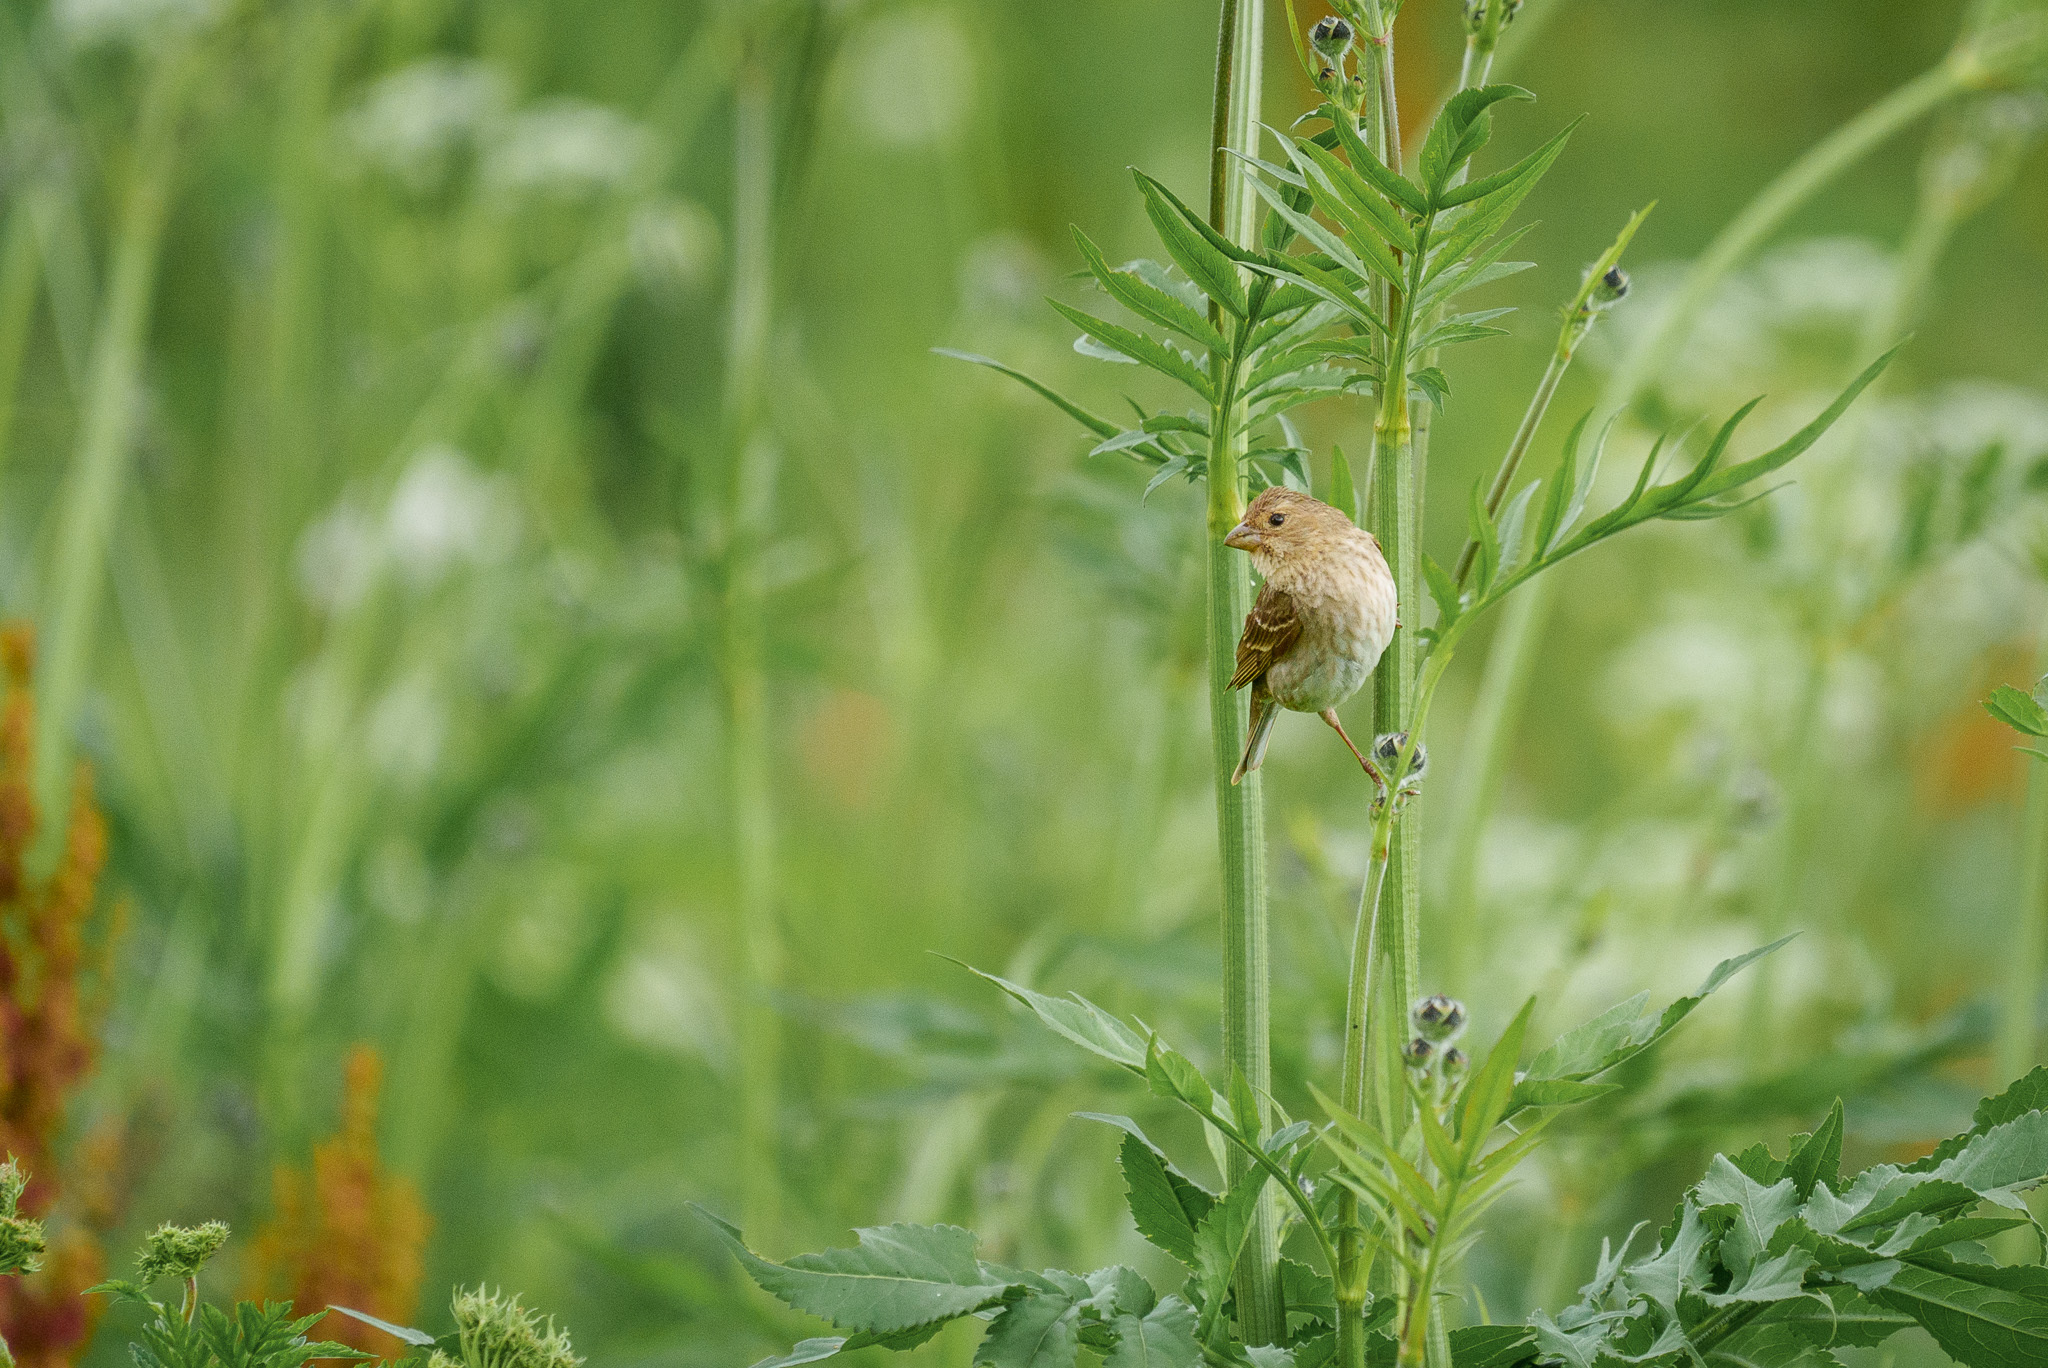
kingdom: Animalia
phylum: Chordata
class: Aves
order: Passeriformes
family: Fringillidae
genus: Carpodacus
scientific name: Carpodacus erythrinus
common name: Common rosefinch
